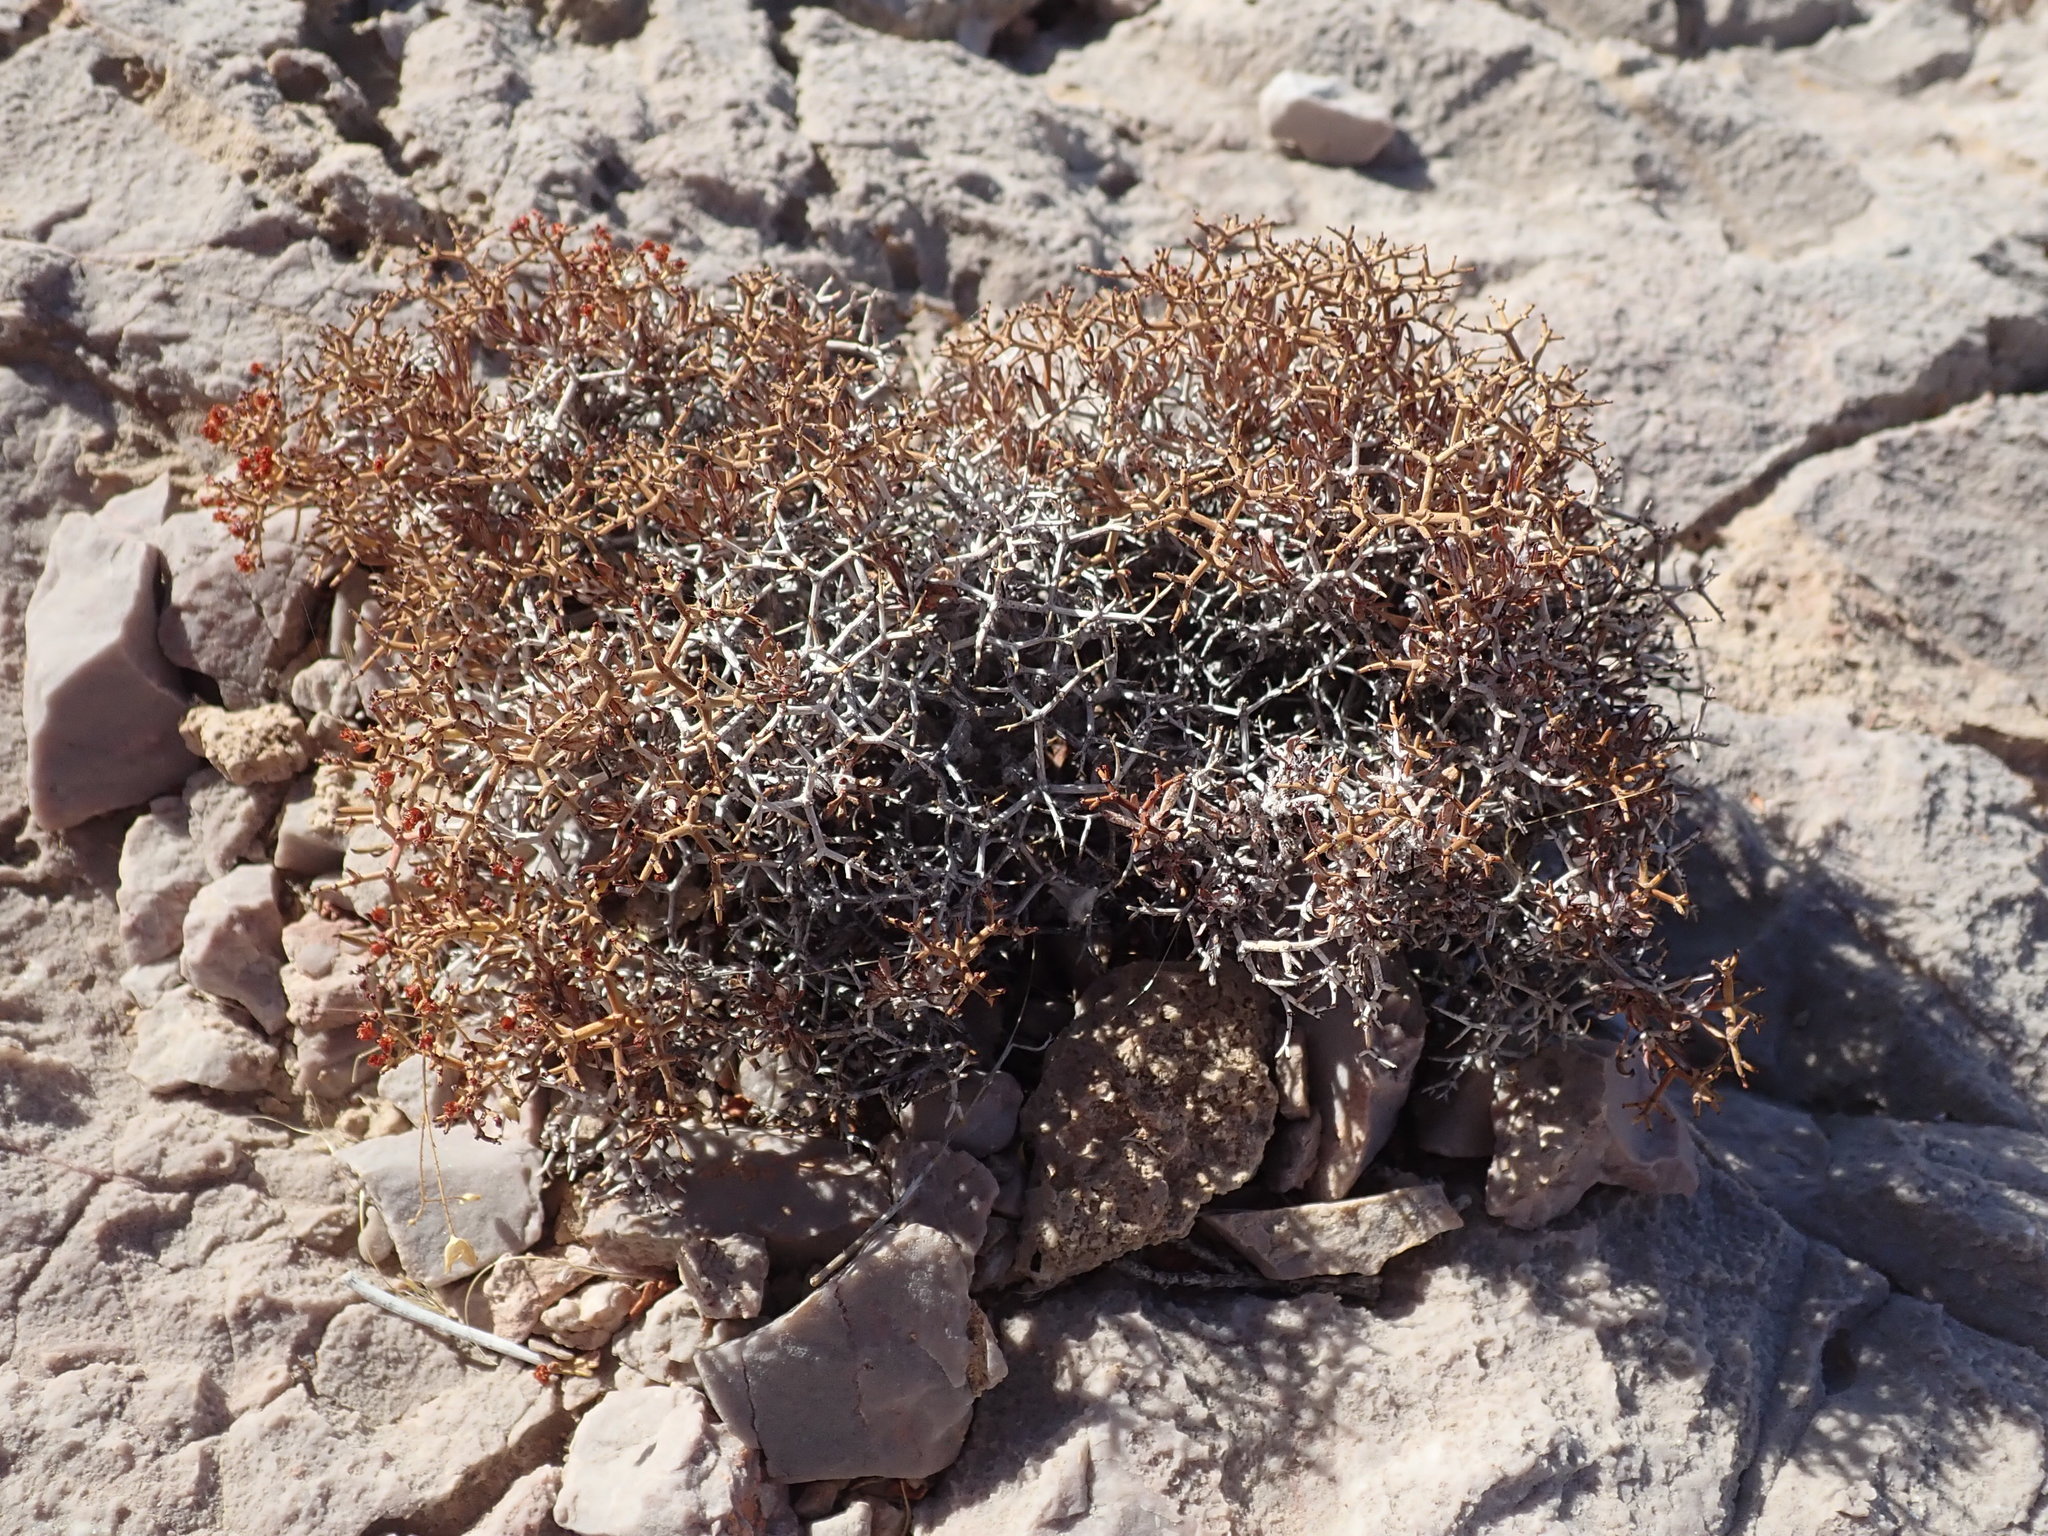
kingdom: Plantae
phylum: Tracheophyta
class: Magnoliopsida
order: Caryophyllales
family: Polygonaceae
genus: Eriogonum
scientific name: Eriogonum heermannii
